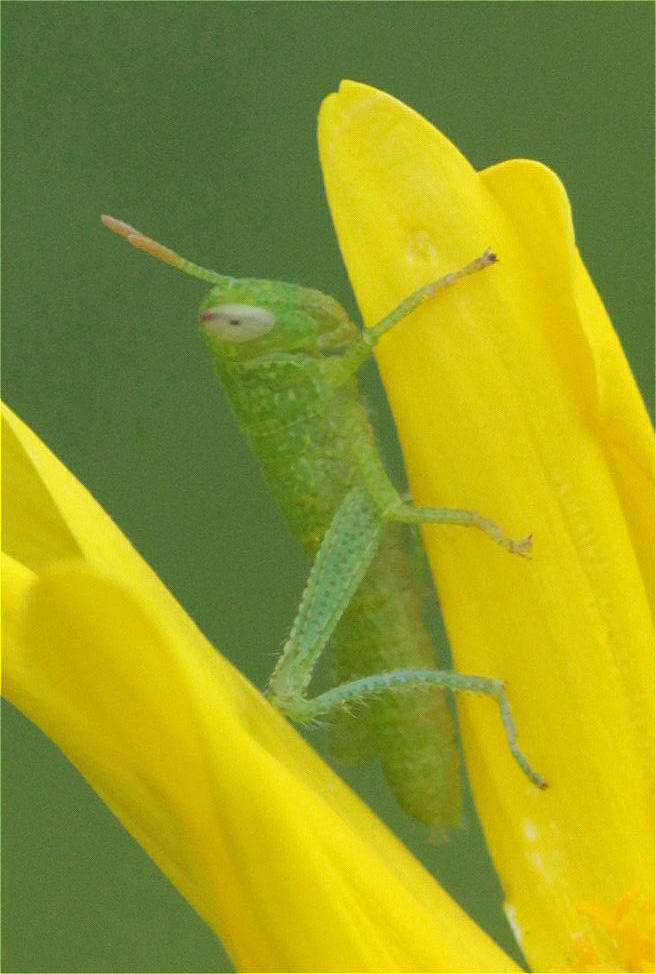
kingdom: Animalia
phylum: Arthropoda
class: Insecta
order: Orthoptera
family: Acrididae
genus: Anacridium
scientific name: Anacridium aegyptium
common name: Egyptian grasshopper
